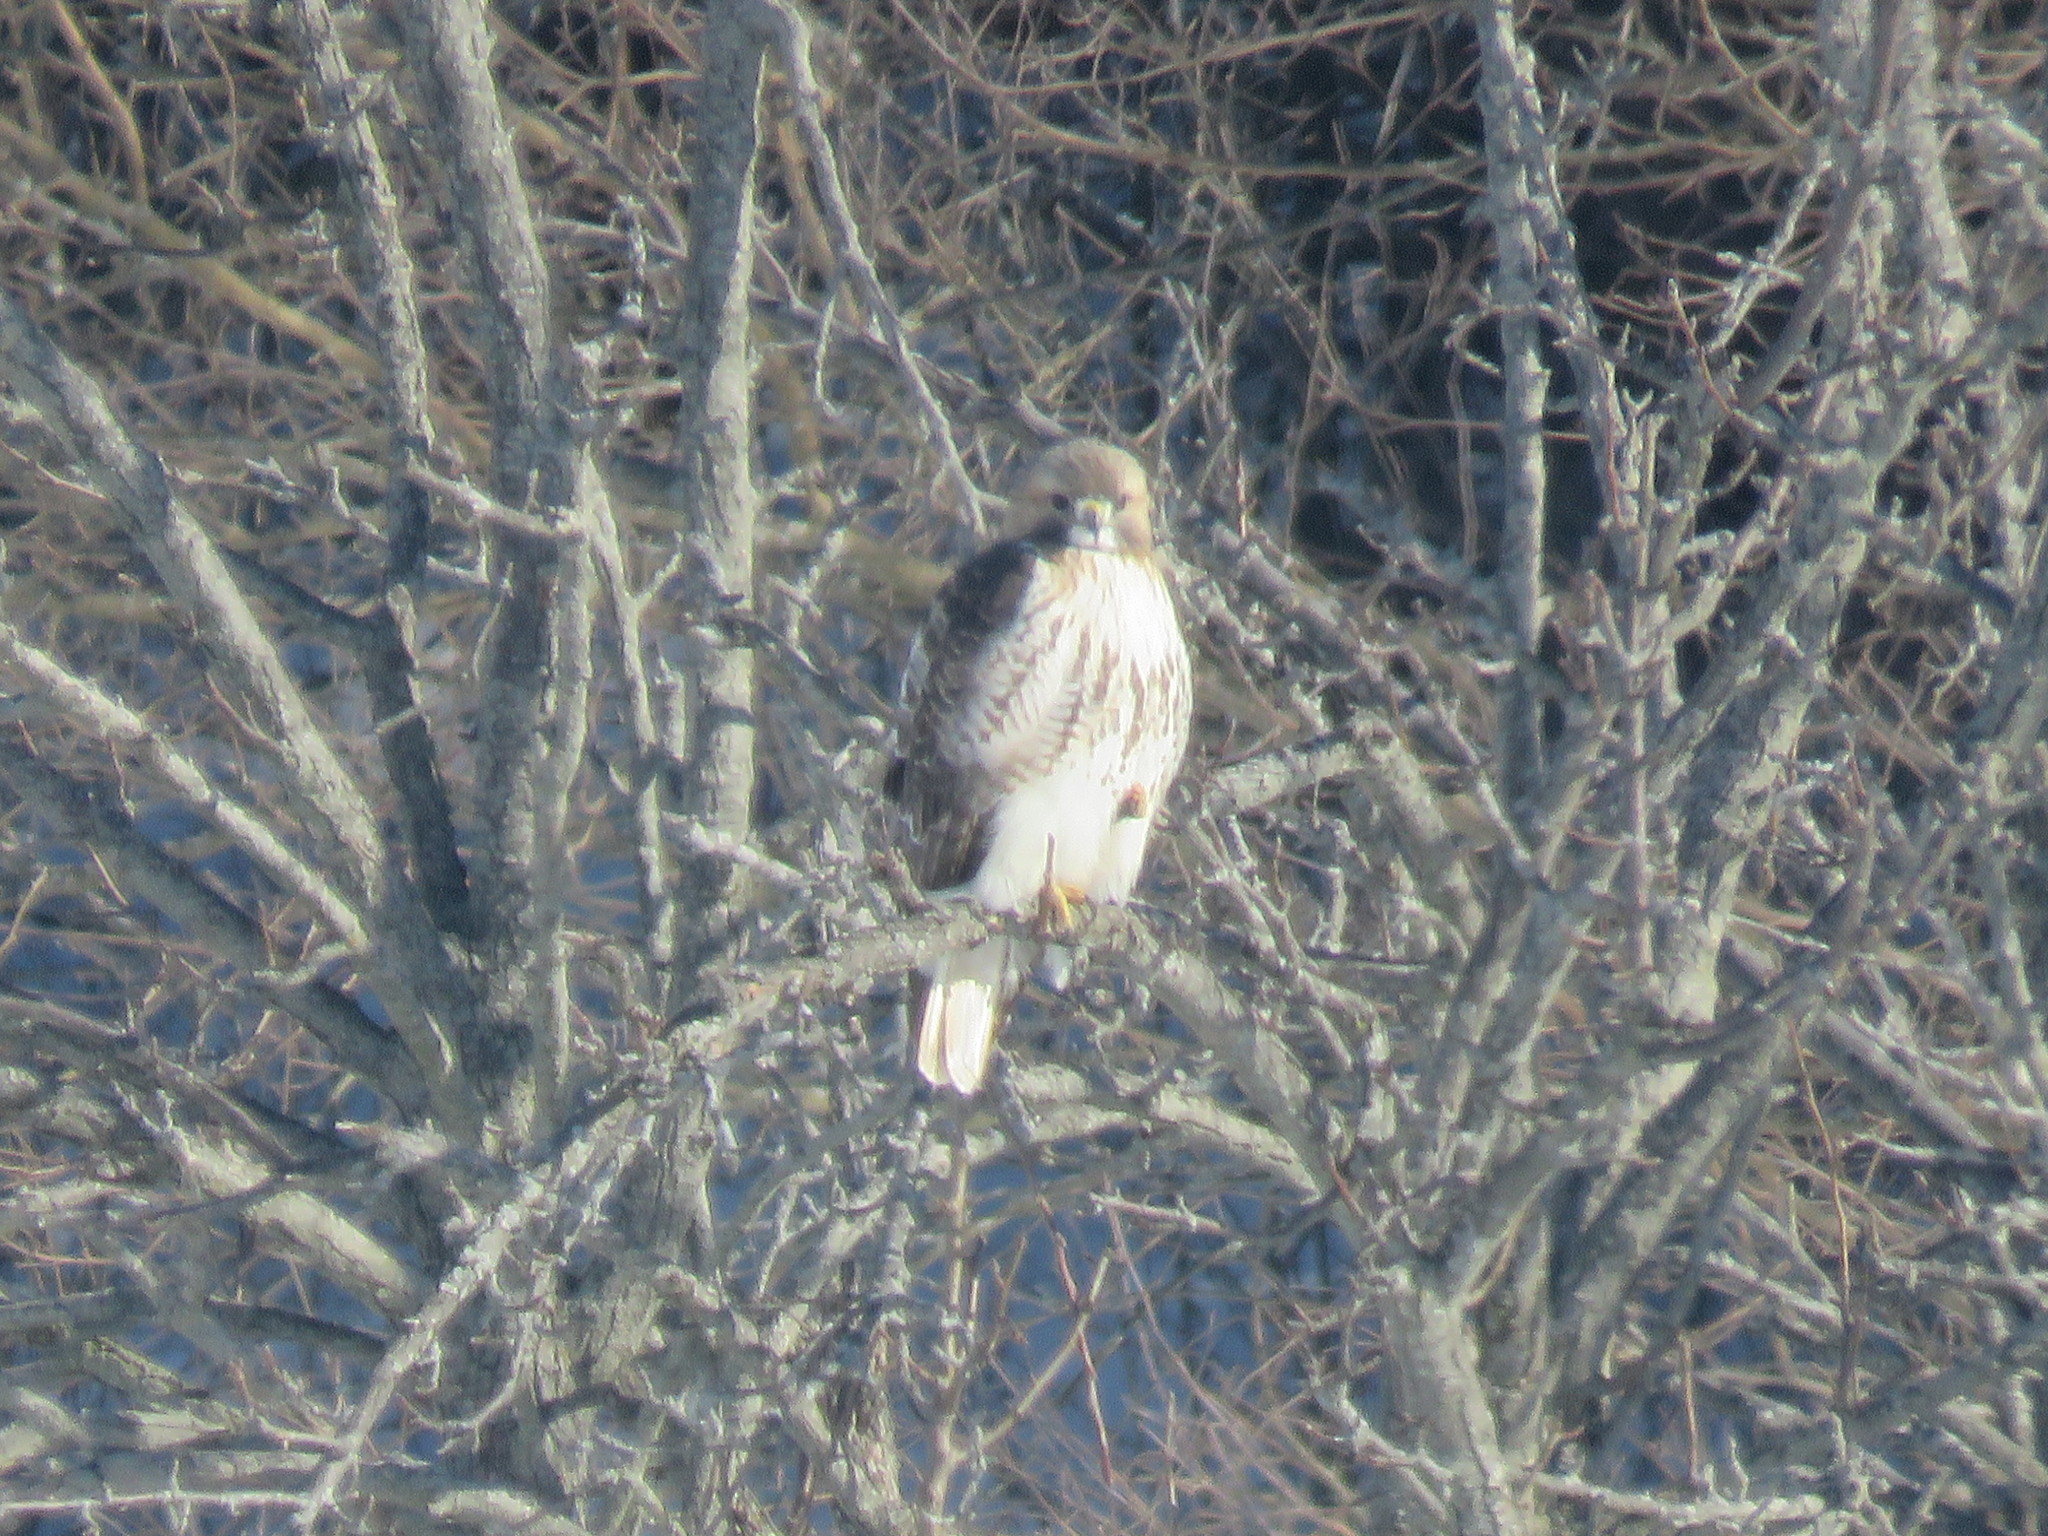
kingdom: Animalia
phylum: Chordata
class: Aves
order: Accipitriformes
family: Accipitridae
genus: Buteo
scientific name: Buteo jamaicensis
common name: Red-tailed hawk
